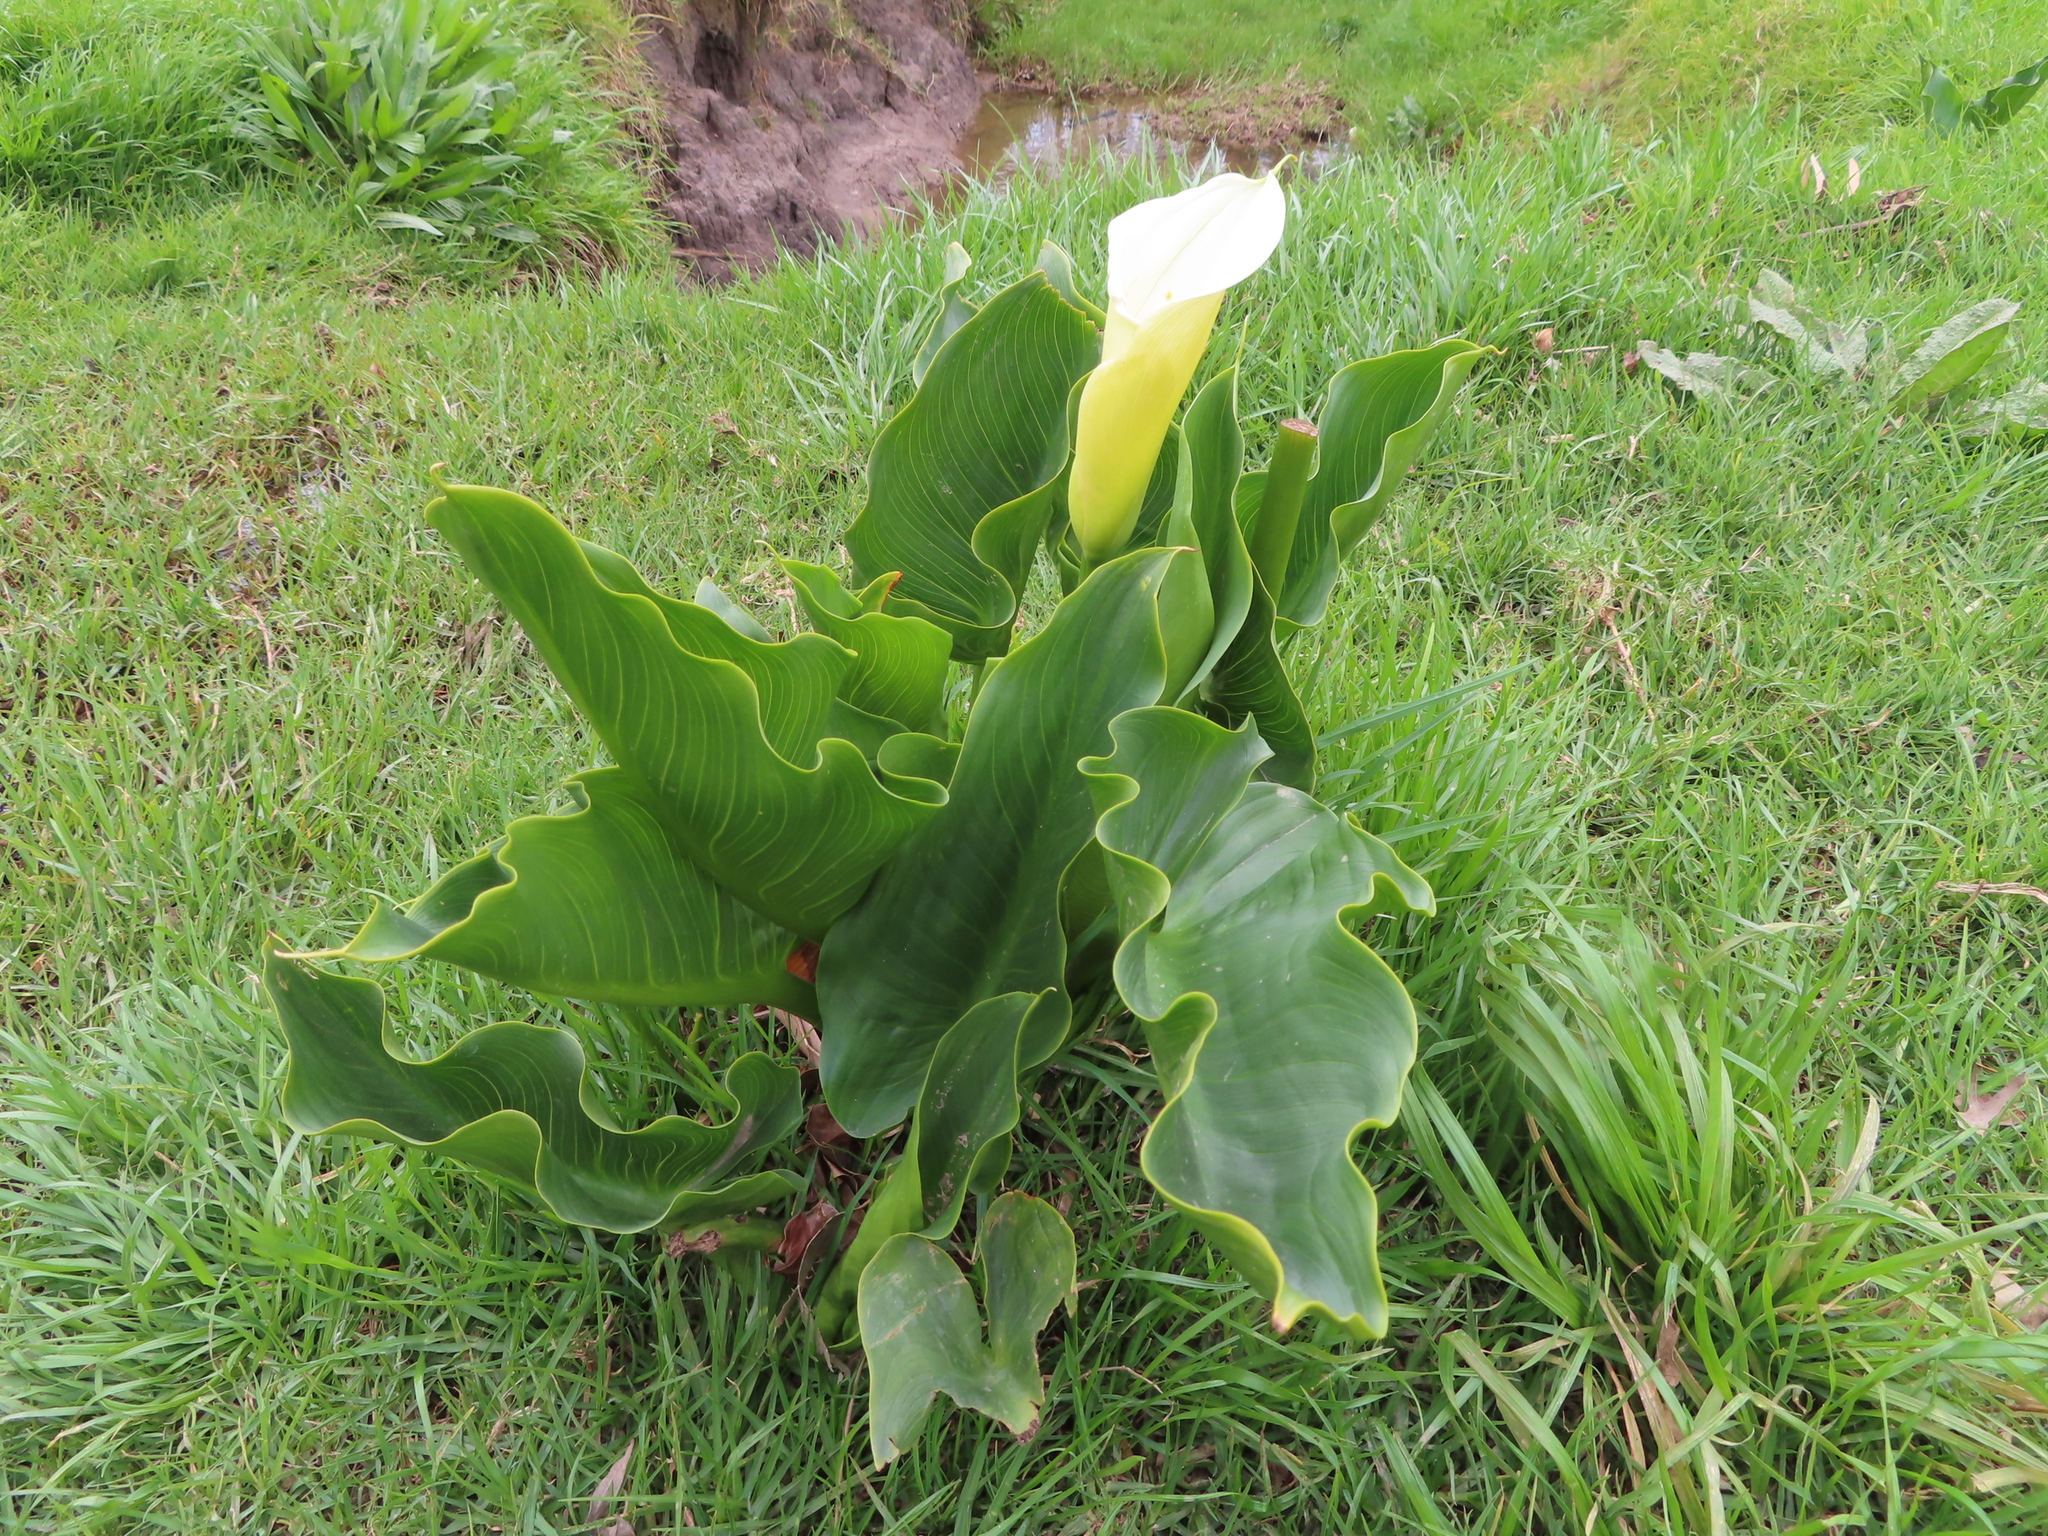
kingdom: Plantae
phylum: Tracheophyta
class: Liliopsida
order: Alismatales
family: Araceae
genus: Zantedeschia
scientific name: Zantedeschia aethiopica
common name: Altar-lily
